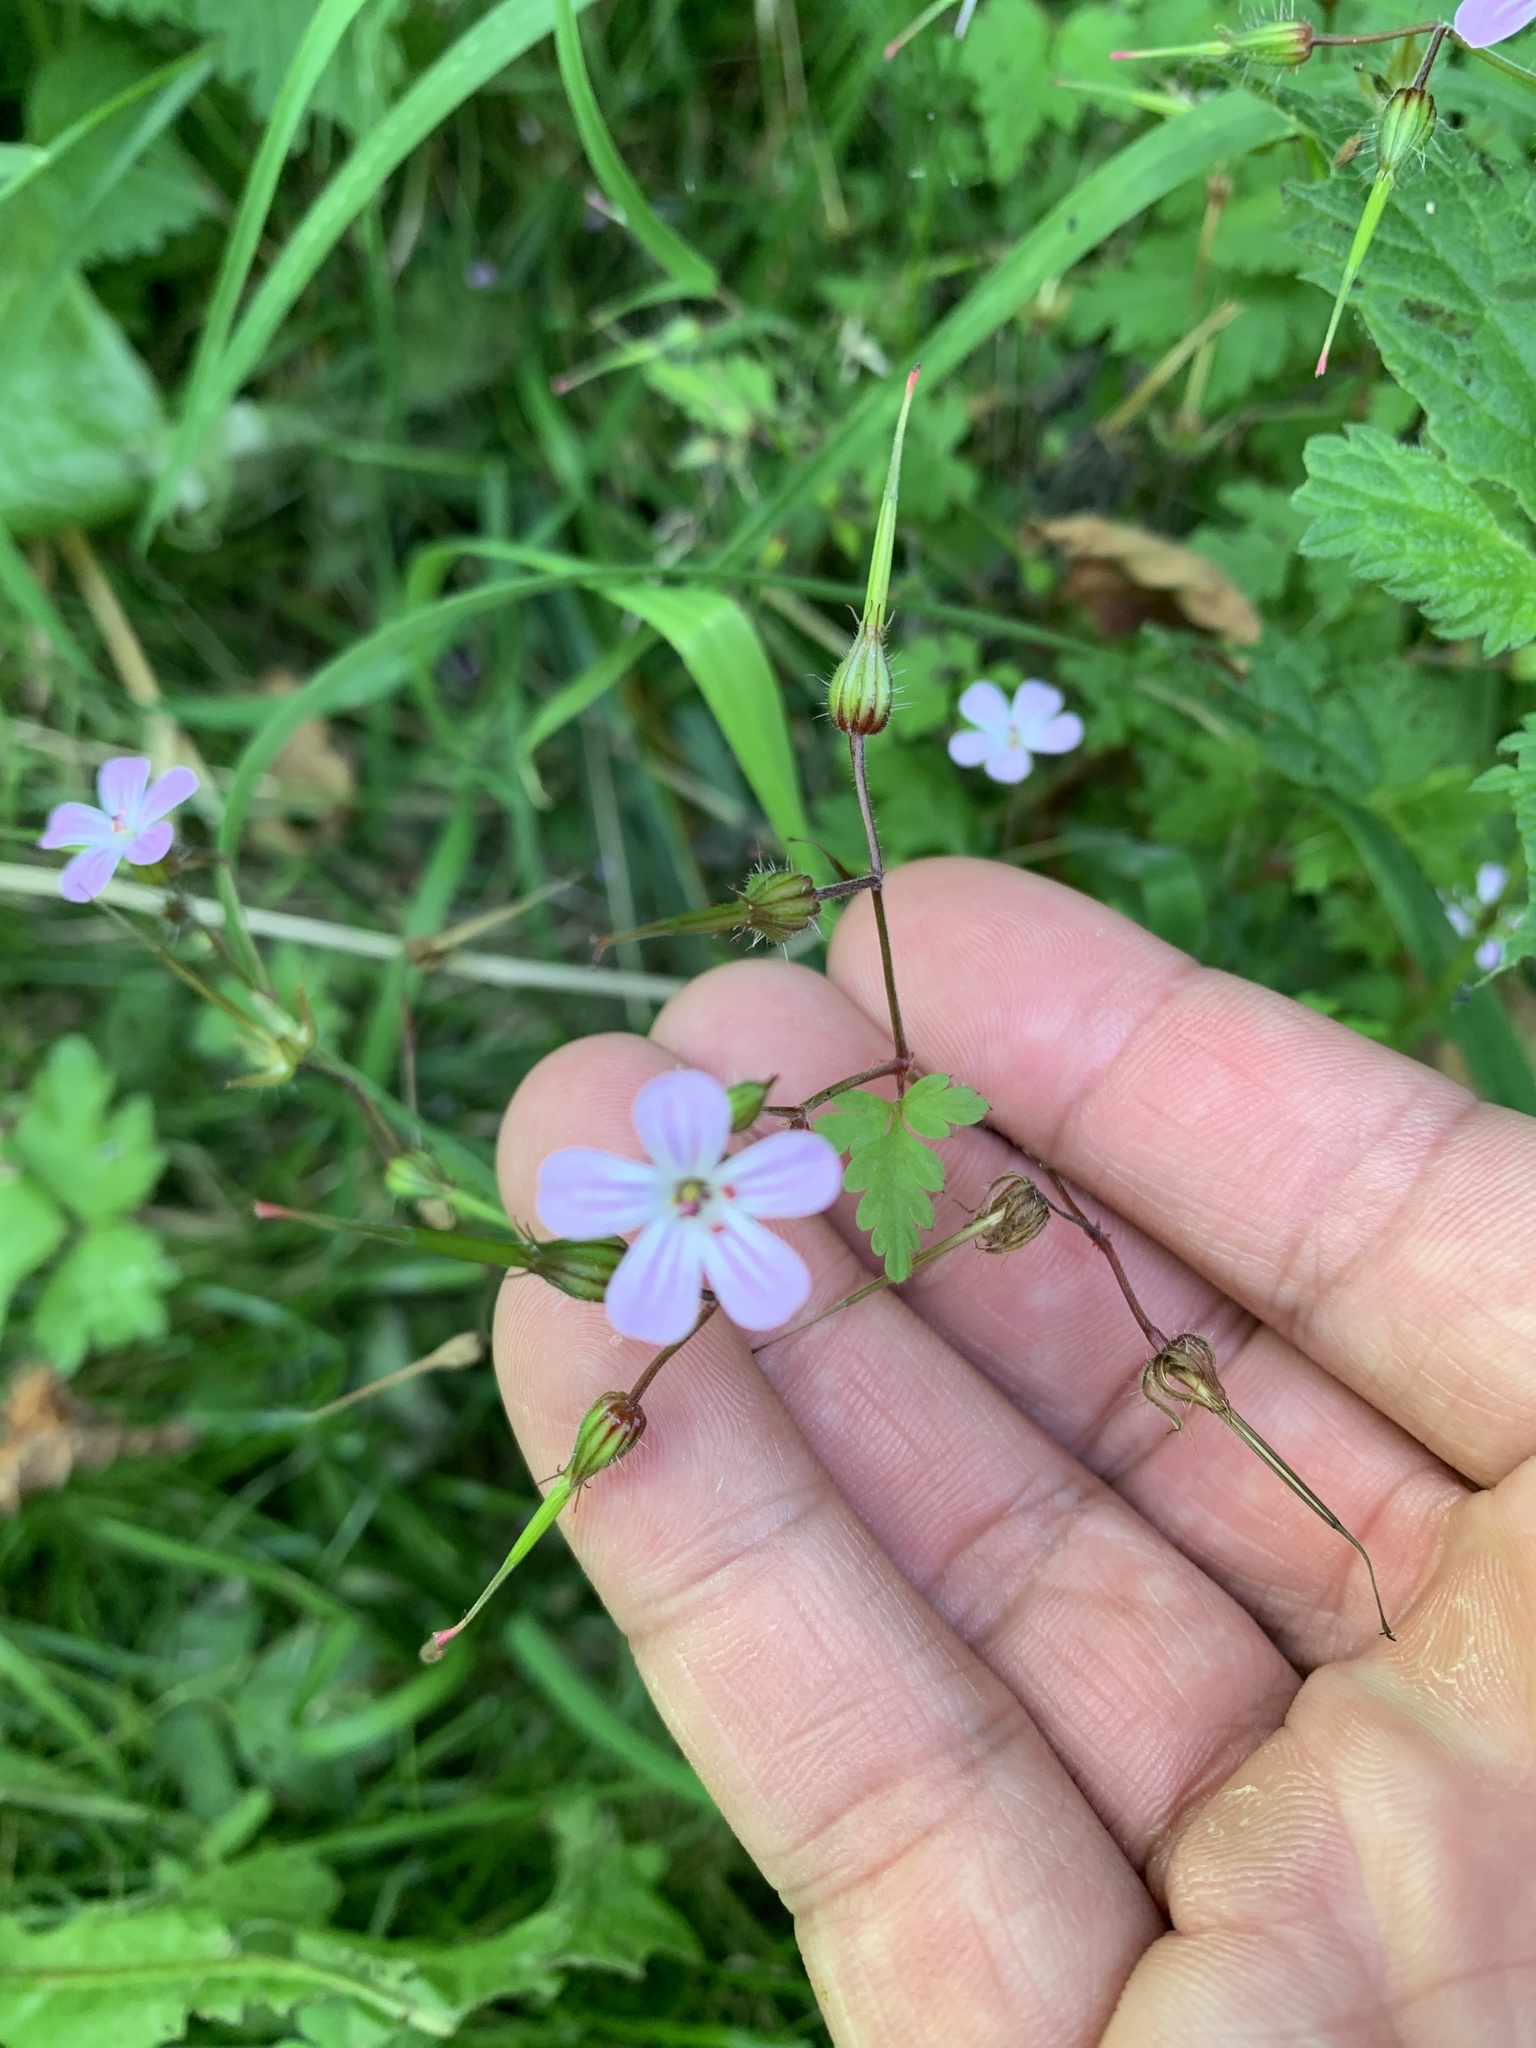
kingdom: Plantae
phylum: Tracheophyta
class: Magnoliopsida
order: Geraniales
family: Geraniaceae
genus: Geranium
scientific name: Geranium robertianum
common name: Herb-robert
